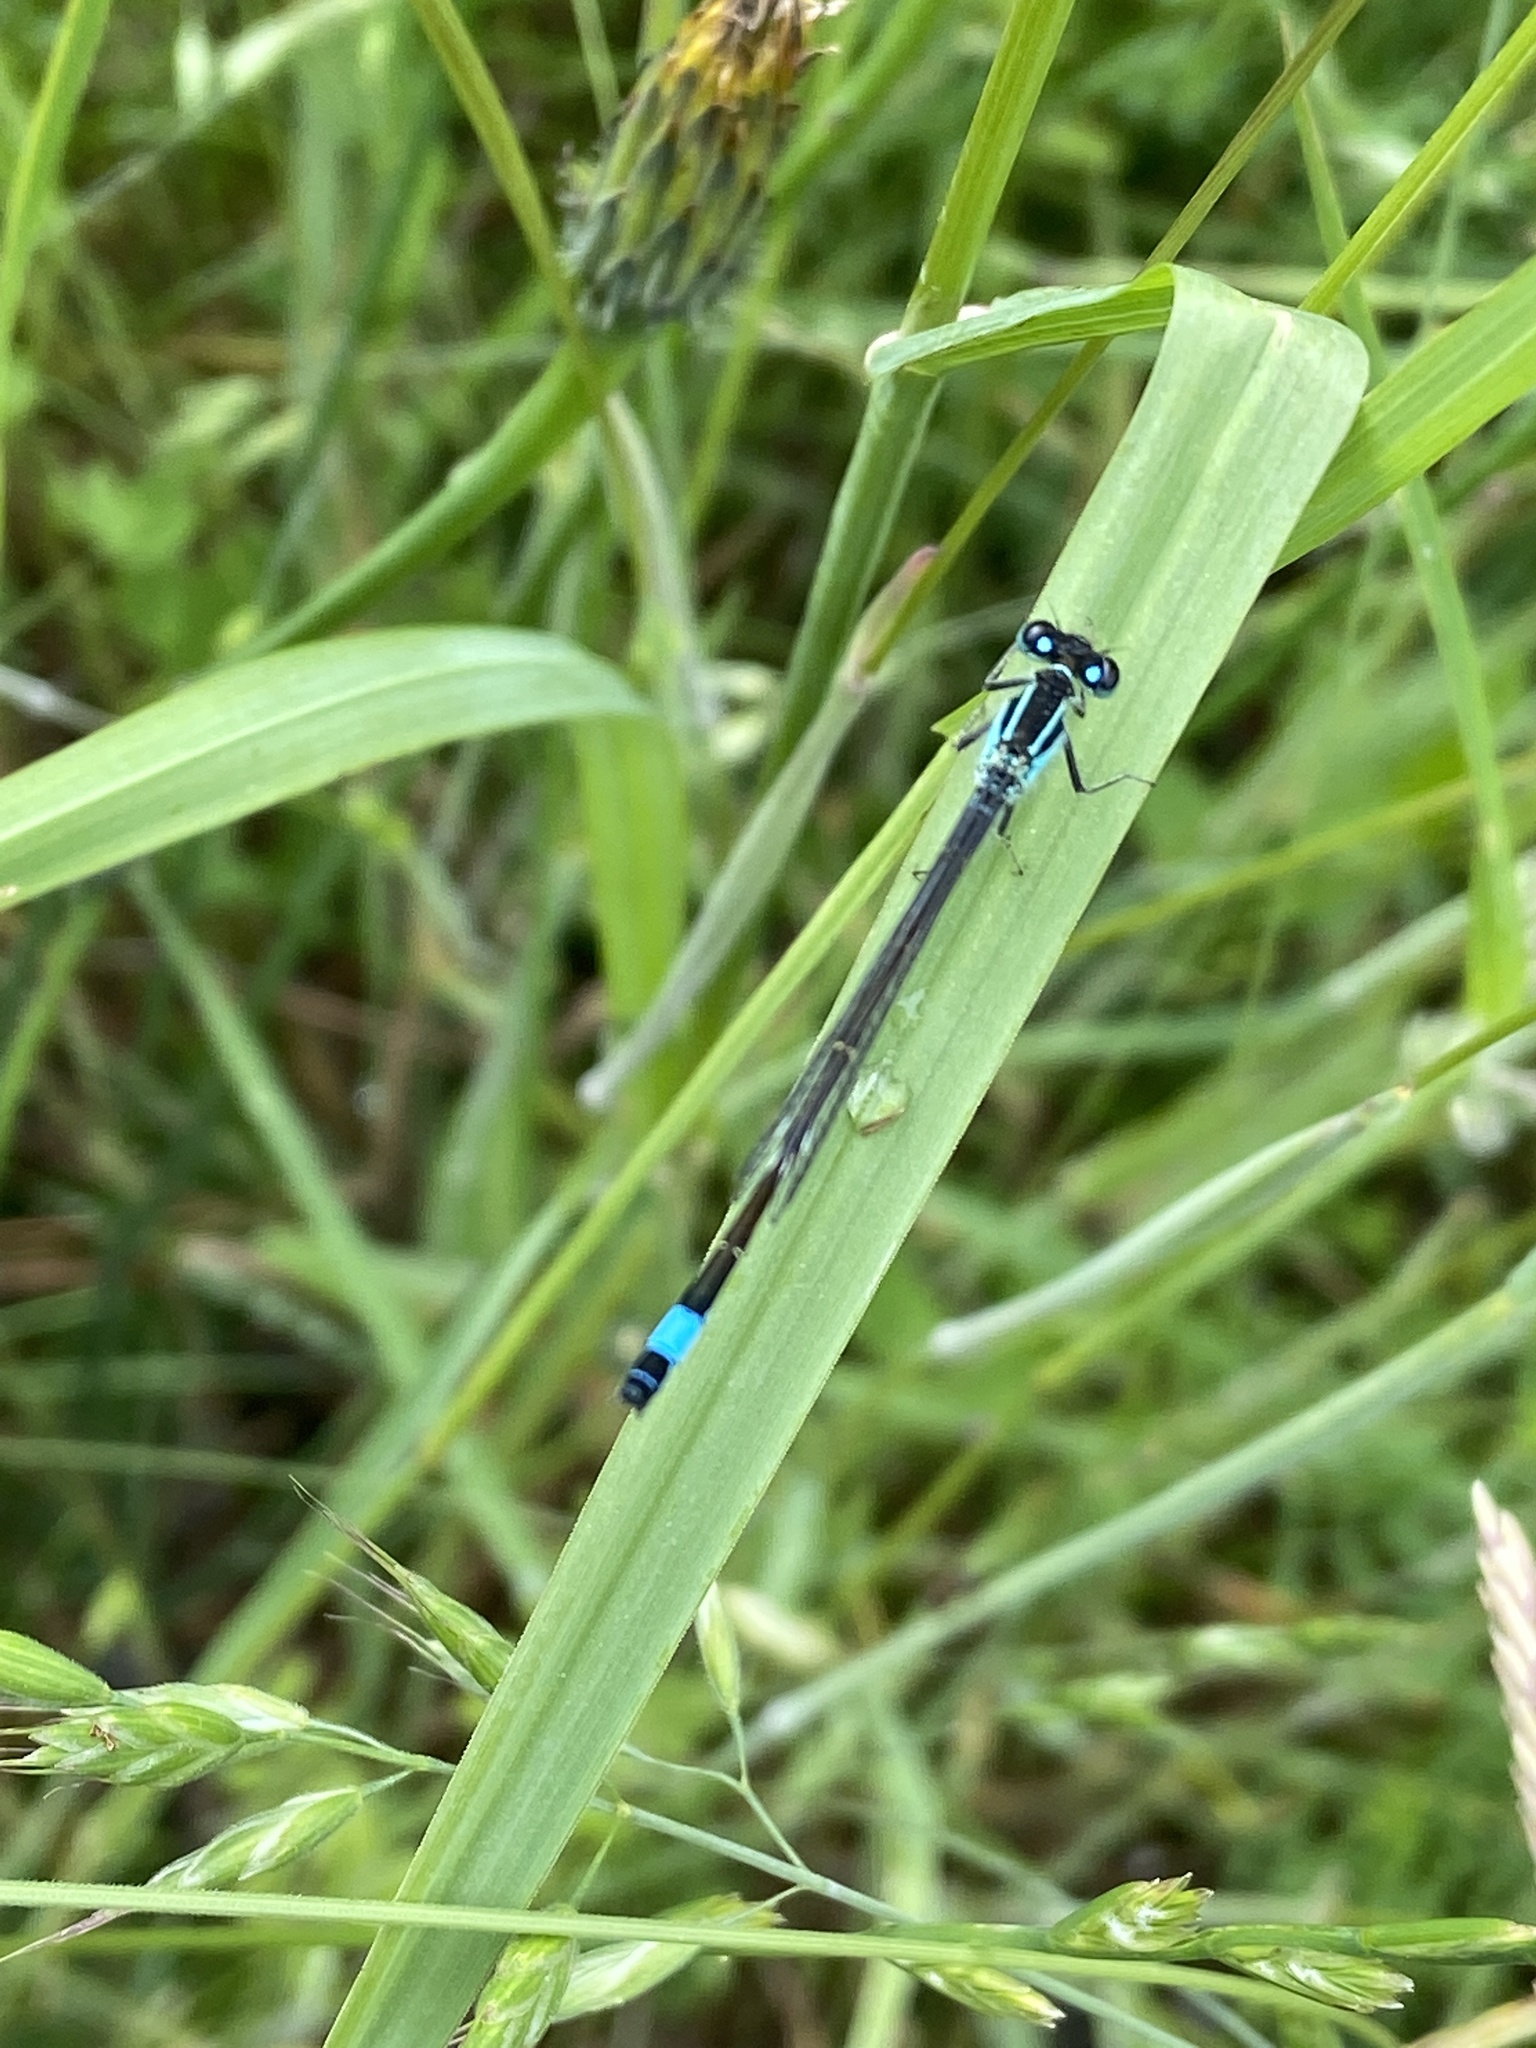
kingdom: Animalia
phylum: Arthropoda
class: Insecta
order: Odonata
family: Coenagrionidae
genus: Ischnura
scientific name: Ischnura elegans
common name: Blue-tailed damselfly
